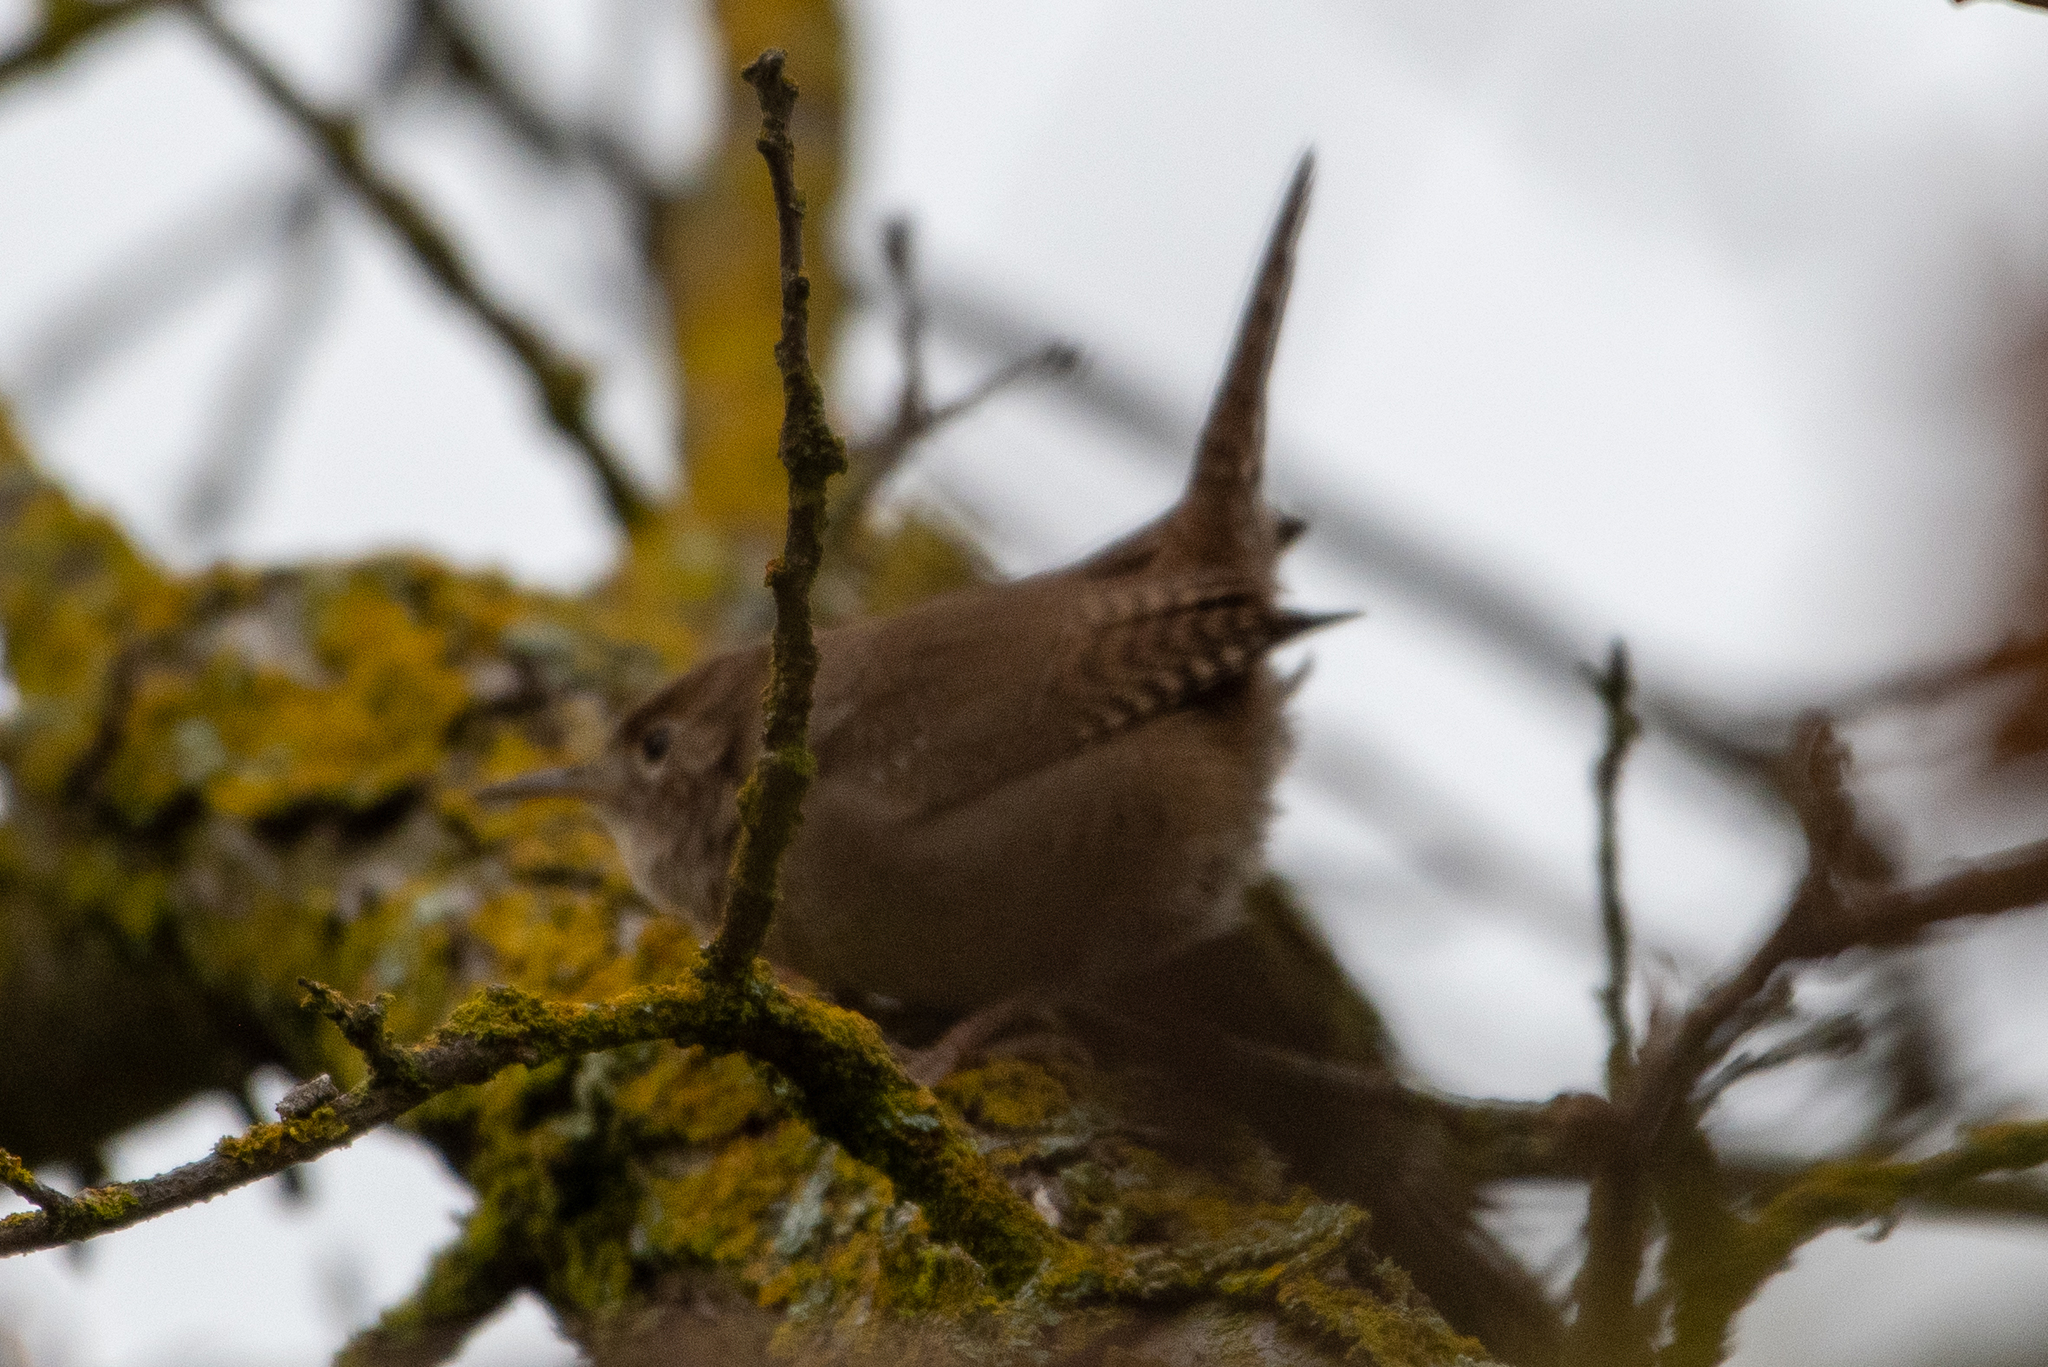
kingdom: Animalia
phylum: Chordata
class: Aves
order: Passeriformes
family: Troglodytidae
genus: Troglodytes
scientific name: Troglodytes aedon
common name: House wren
